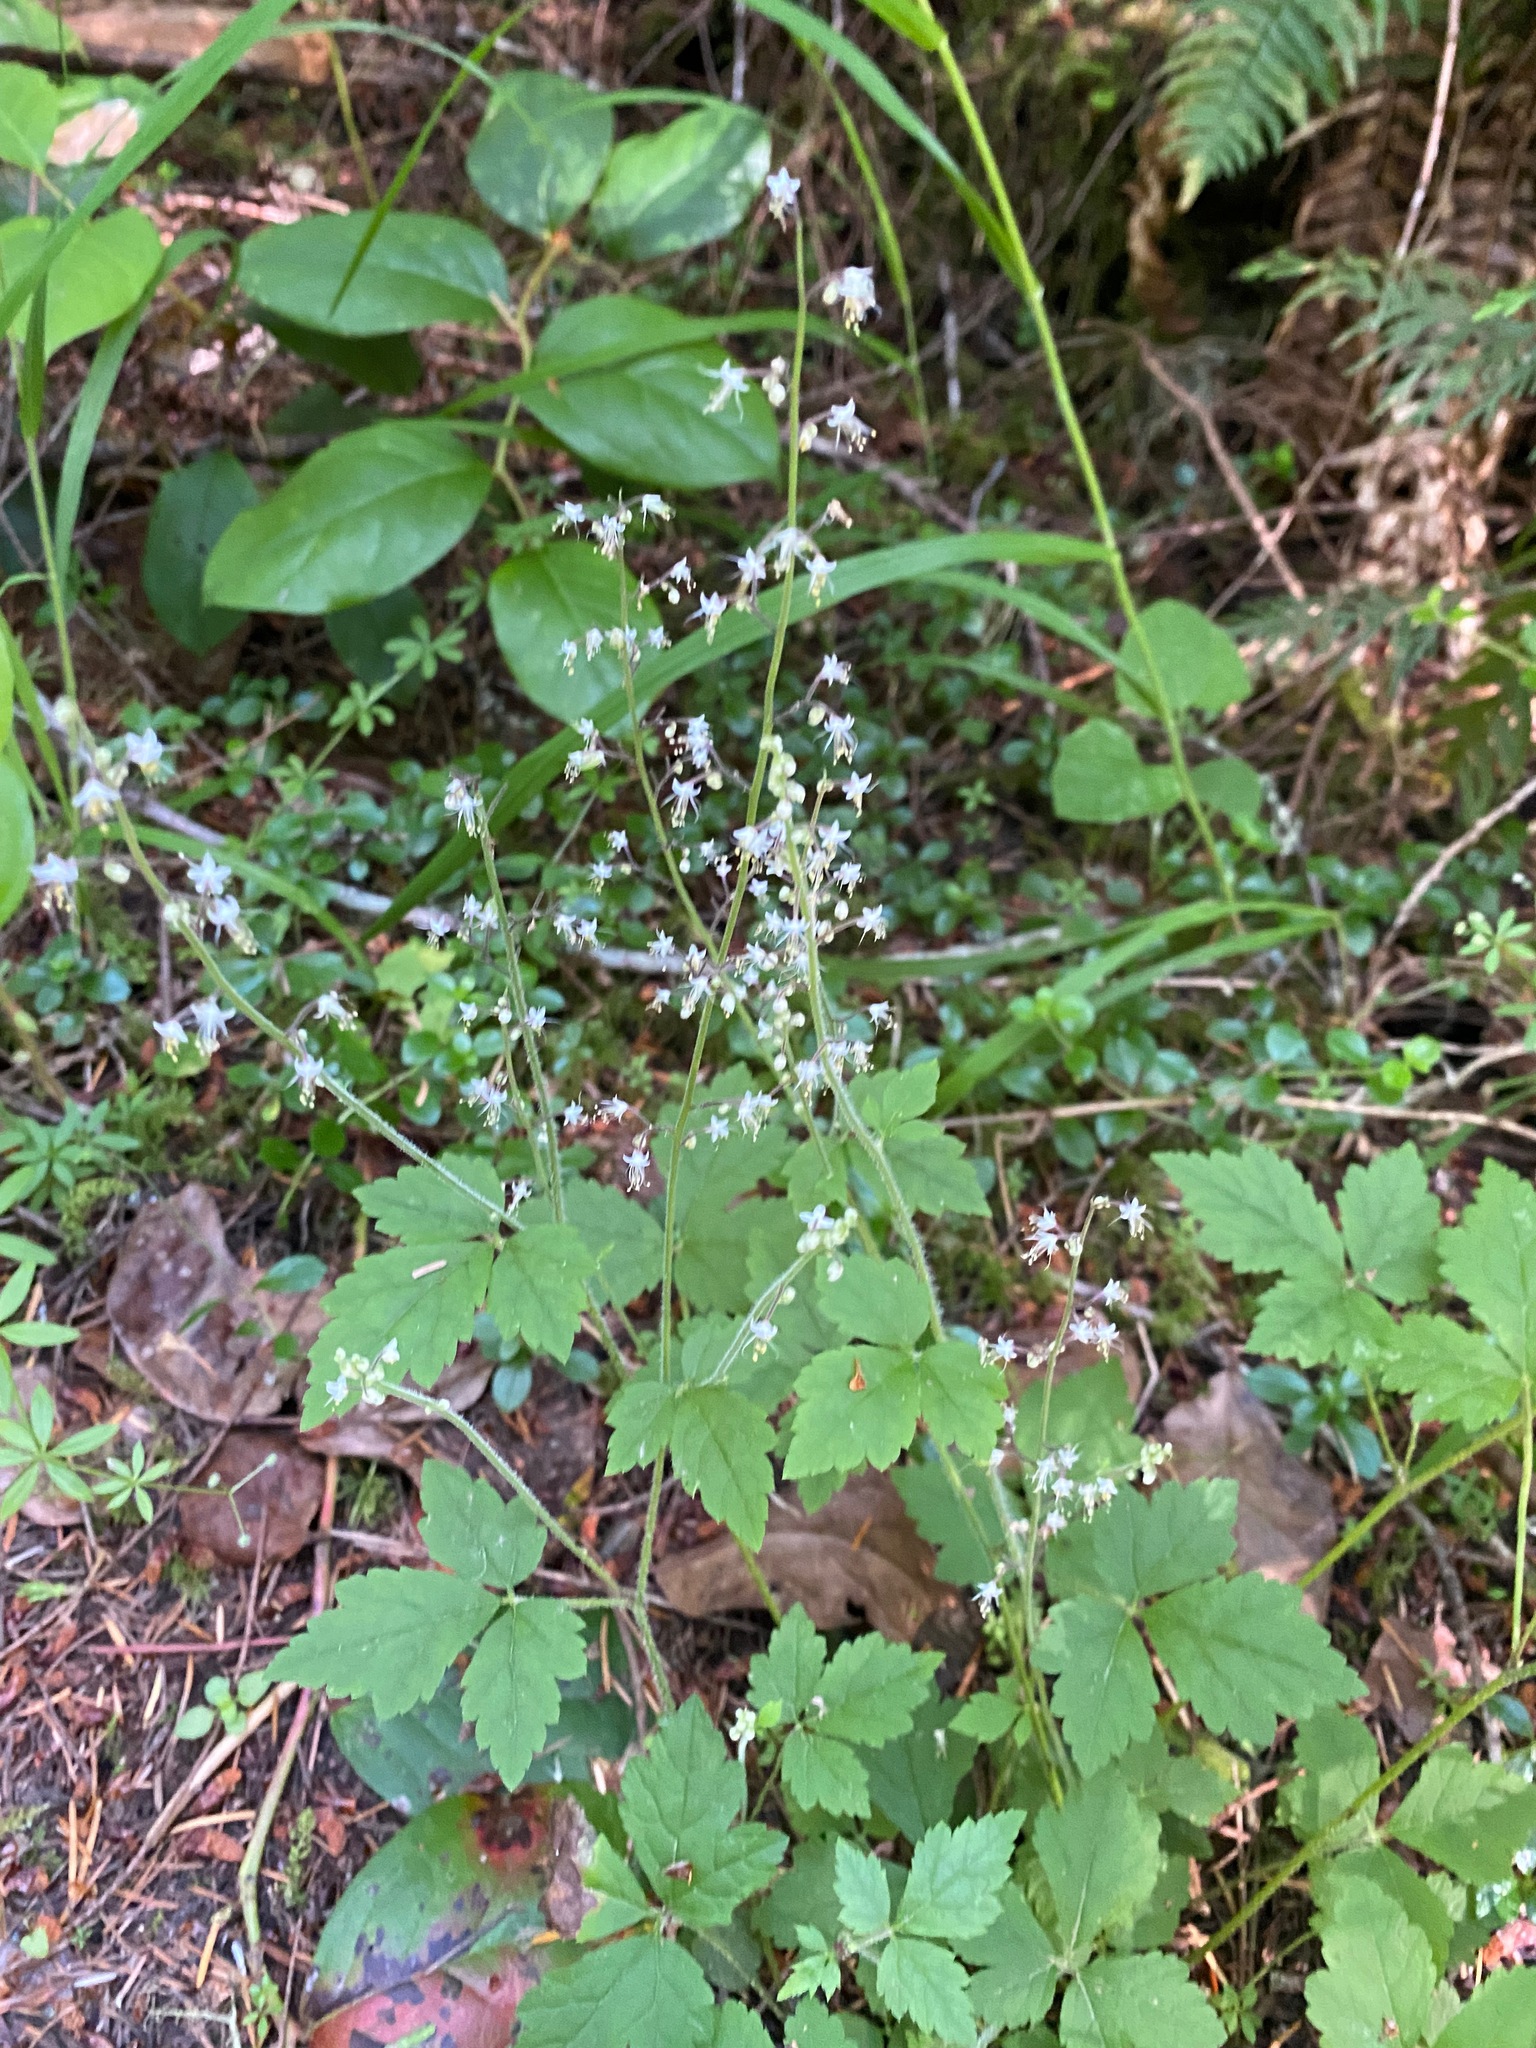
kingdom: Plantae
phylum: Tracheophyta
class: Magnoliopsida
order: Saxifragales
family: Saxifragaceae
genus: Tiarella
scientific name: Tiarella trifoliata
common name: Sugar-scoop
